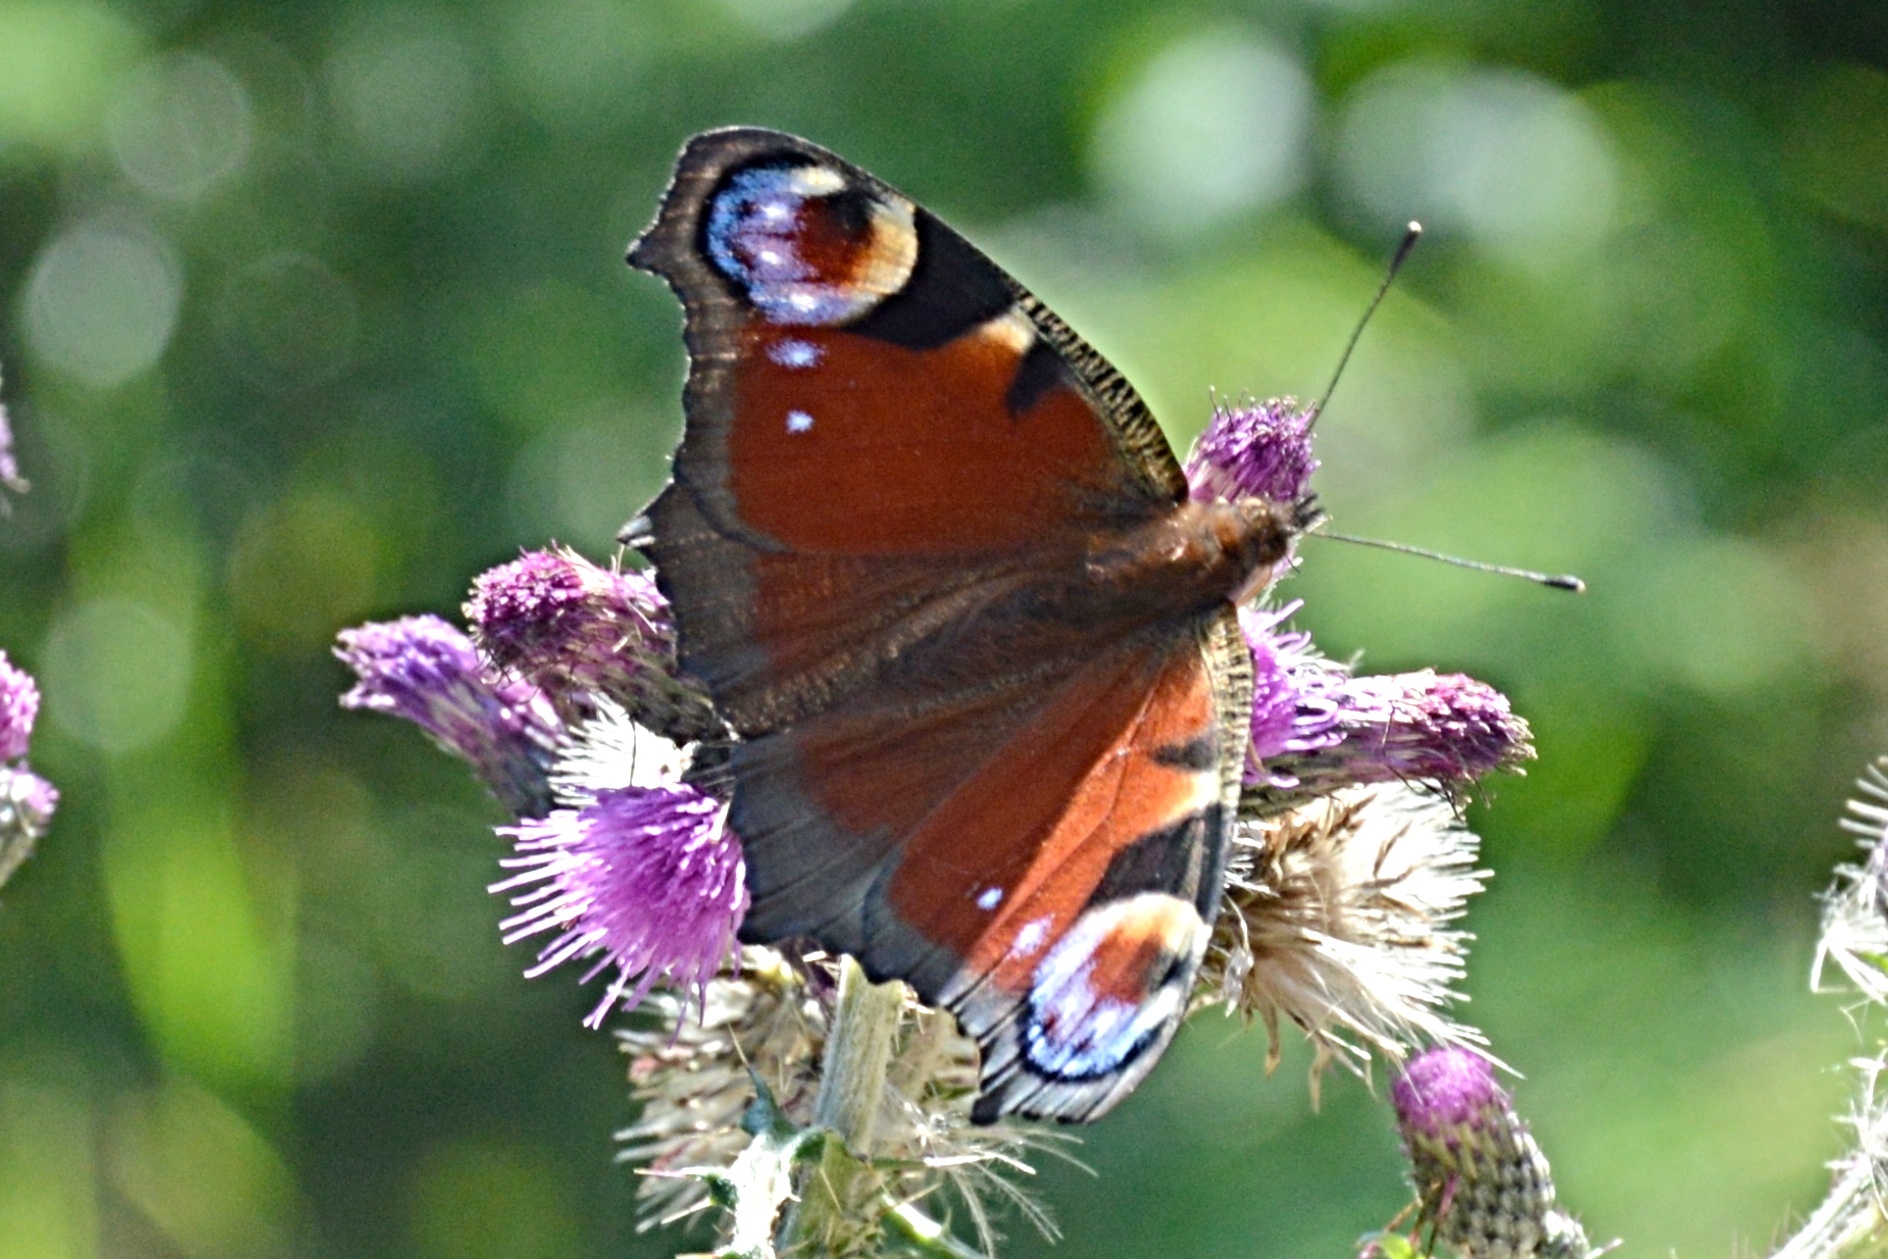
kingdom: Animalia
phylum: Arthropoda
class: Insecta
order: Lepidoptera
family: Nymphalidae
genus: Aglais
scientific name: Aglais io
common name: Peacock
